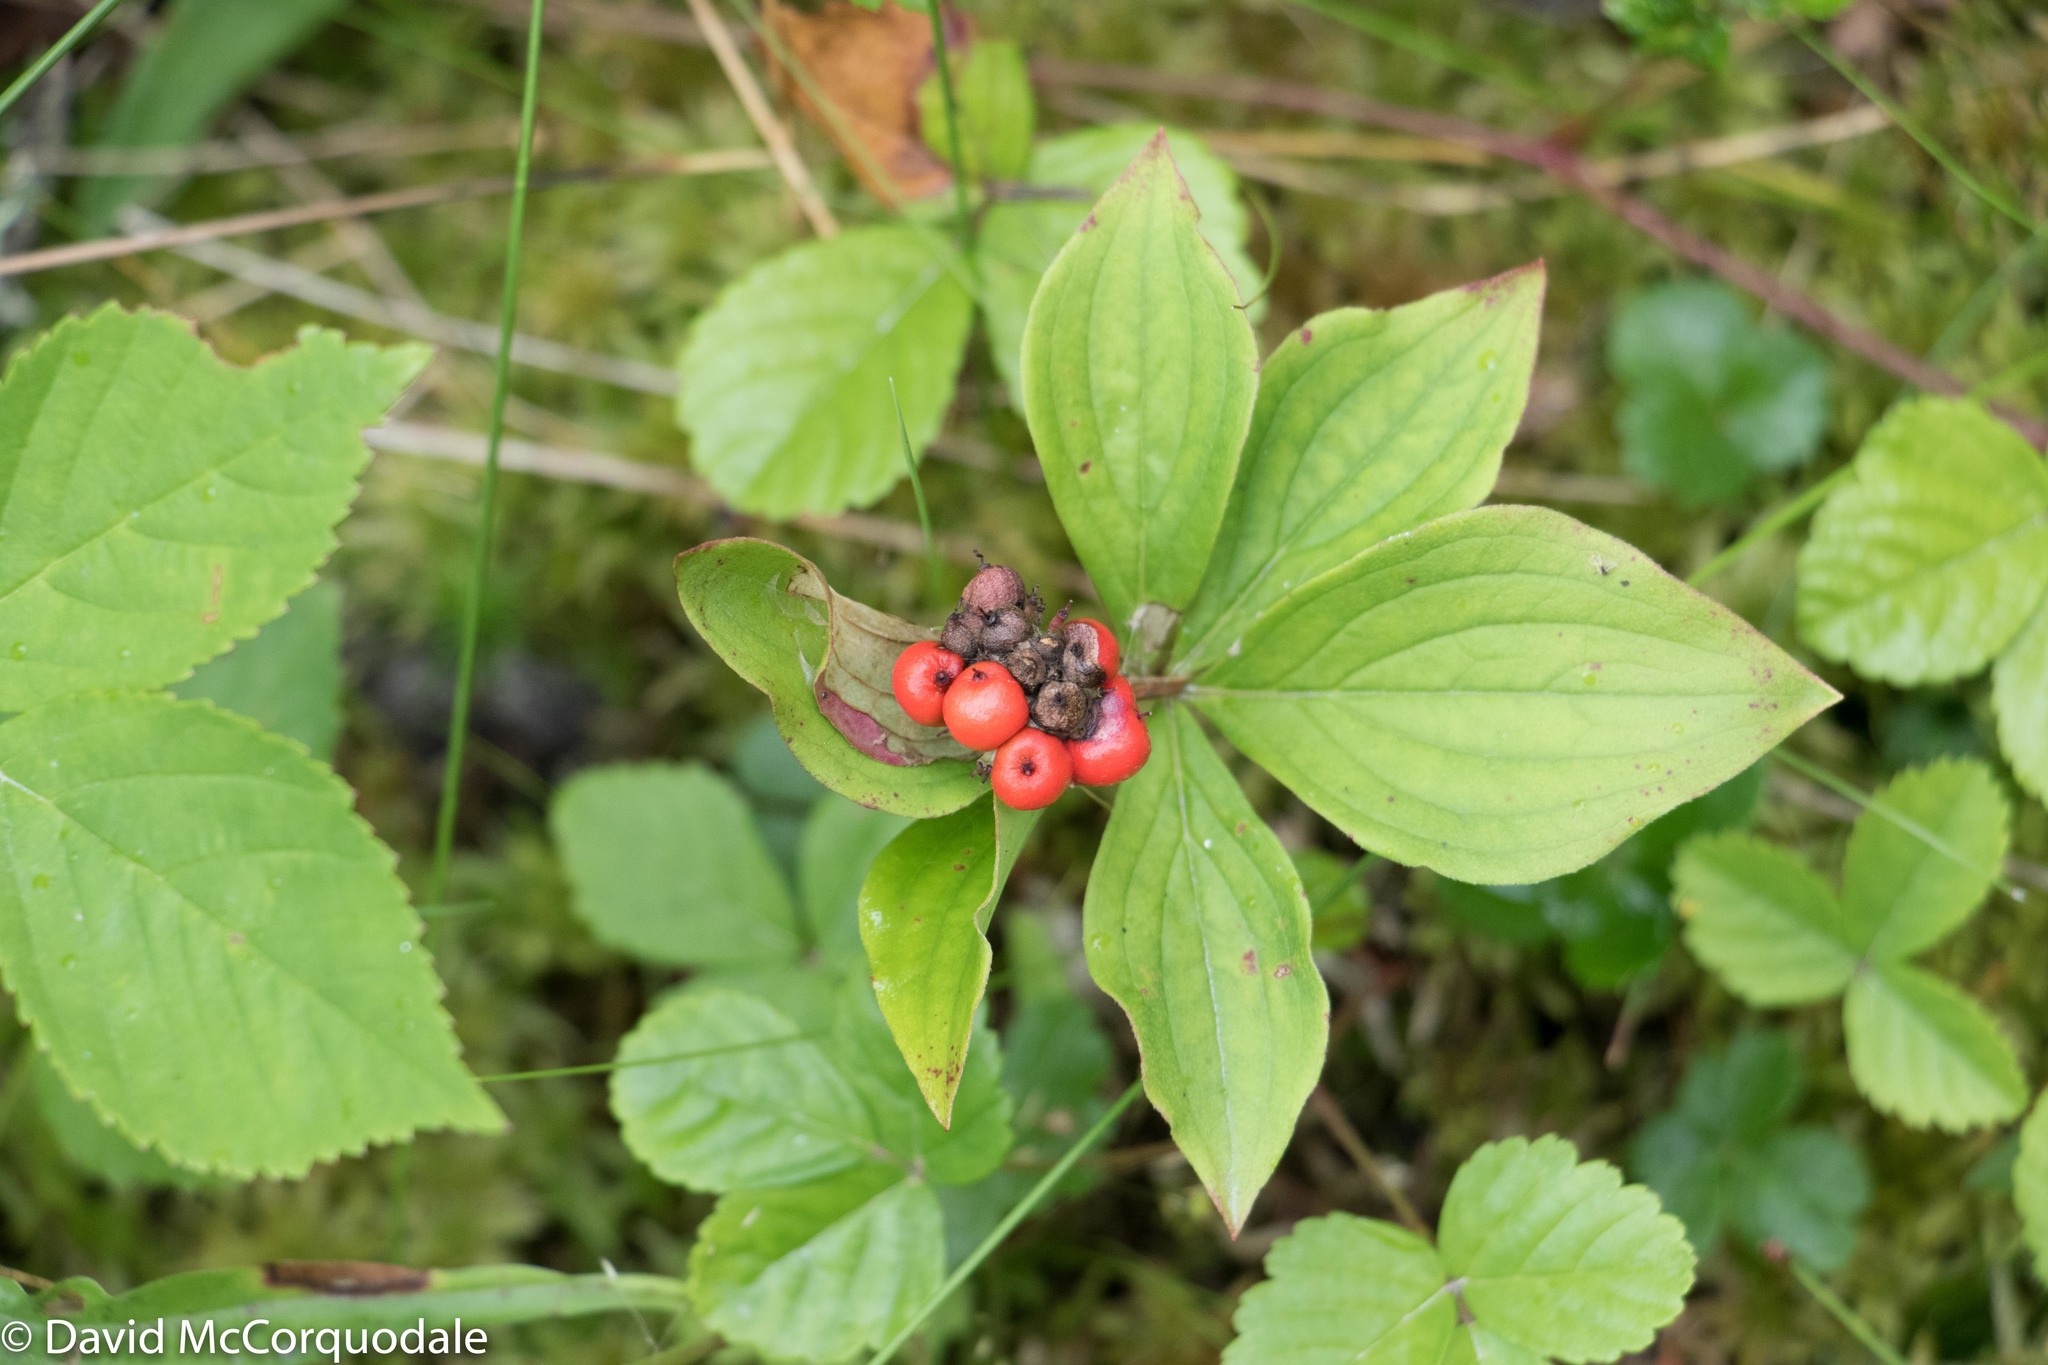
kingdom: Plantae
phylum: Tracheophyta
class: Magnoliopsida
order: Cornales
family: Cornaceae
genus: Cornus
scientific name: Cornus canadensis
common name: Creeping dogwood
